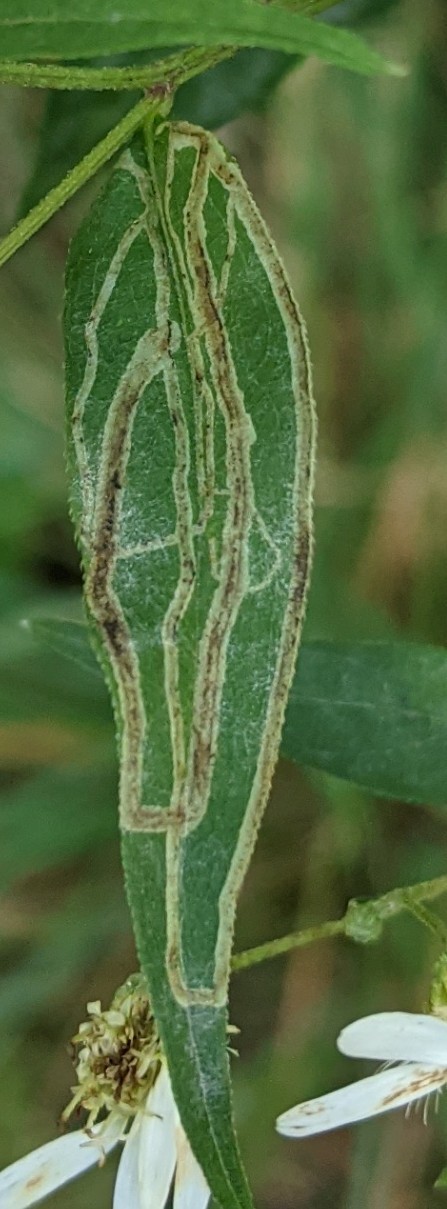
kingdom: Animalia
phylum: Arthropoda
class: Insecta
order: Diptera
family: Agromyzidae
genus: Ophiomyia
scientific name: Ophiomyia maura
